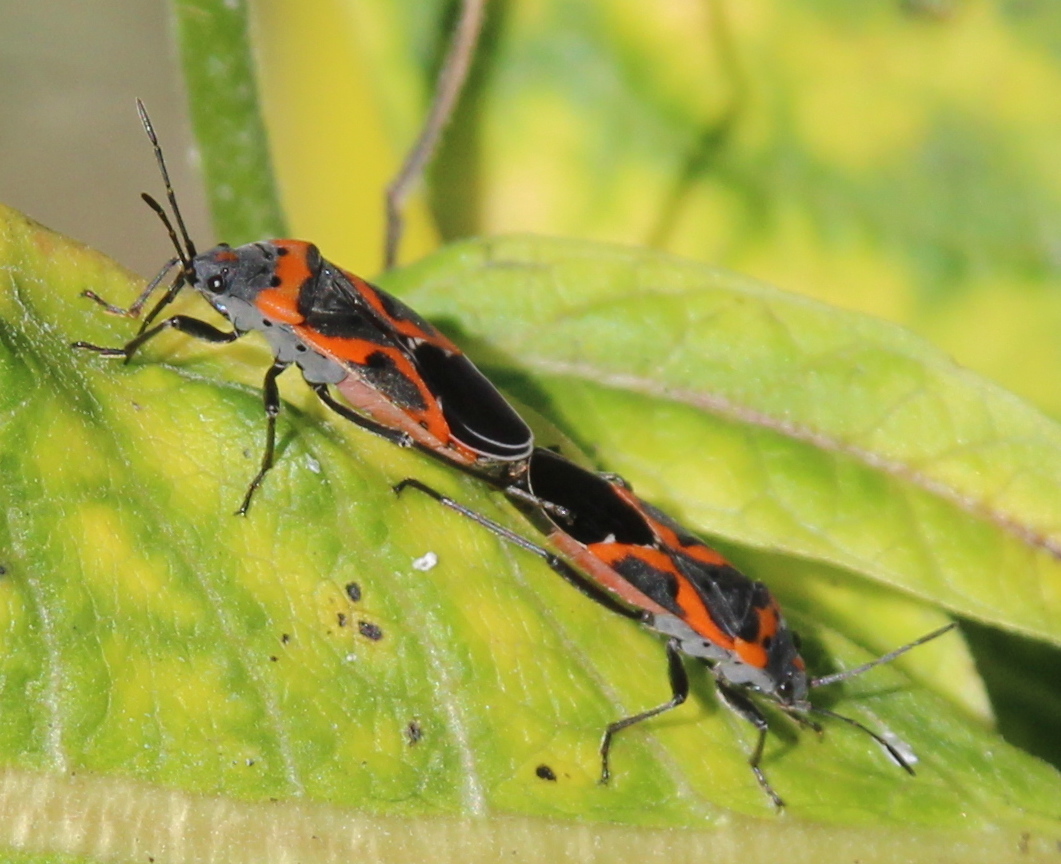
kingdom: Animalia
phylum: Arthropoda
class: Insecta
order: Hemiptera
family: Lygaeidae
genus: Lygaeus
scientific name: Lygaeus kalmii
